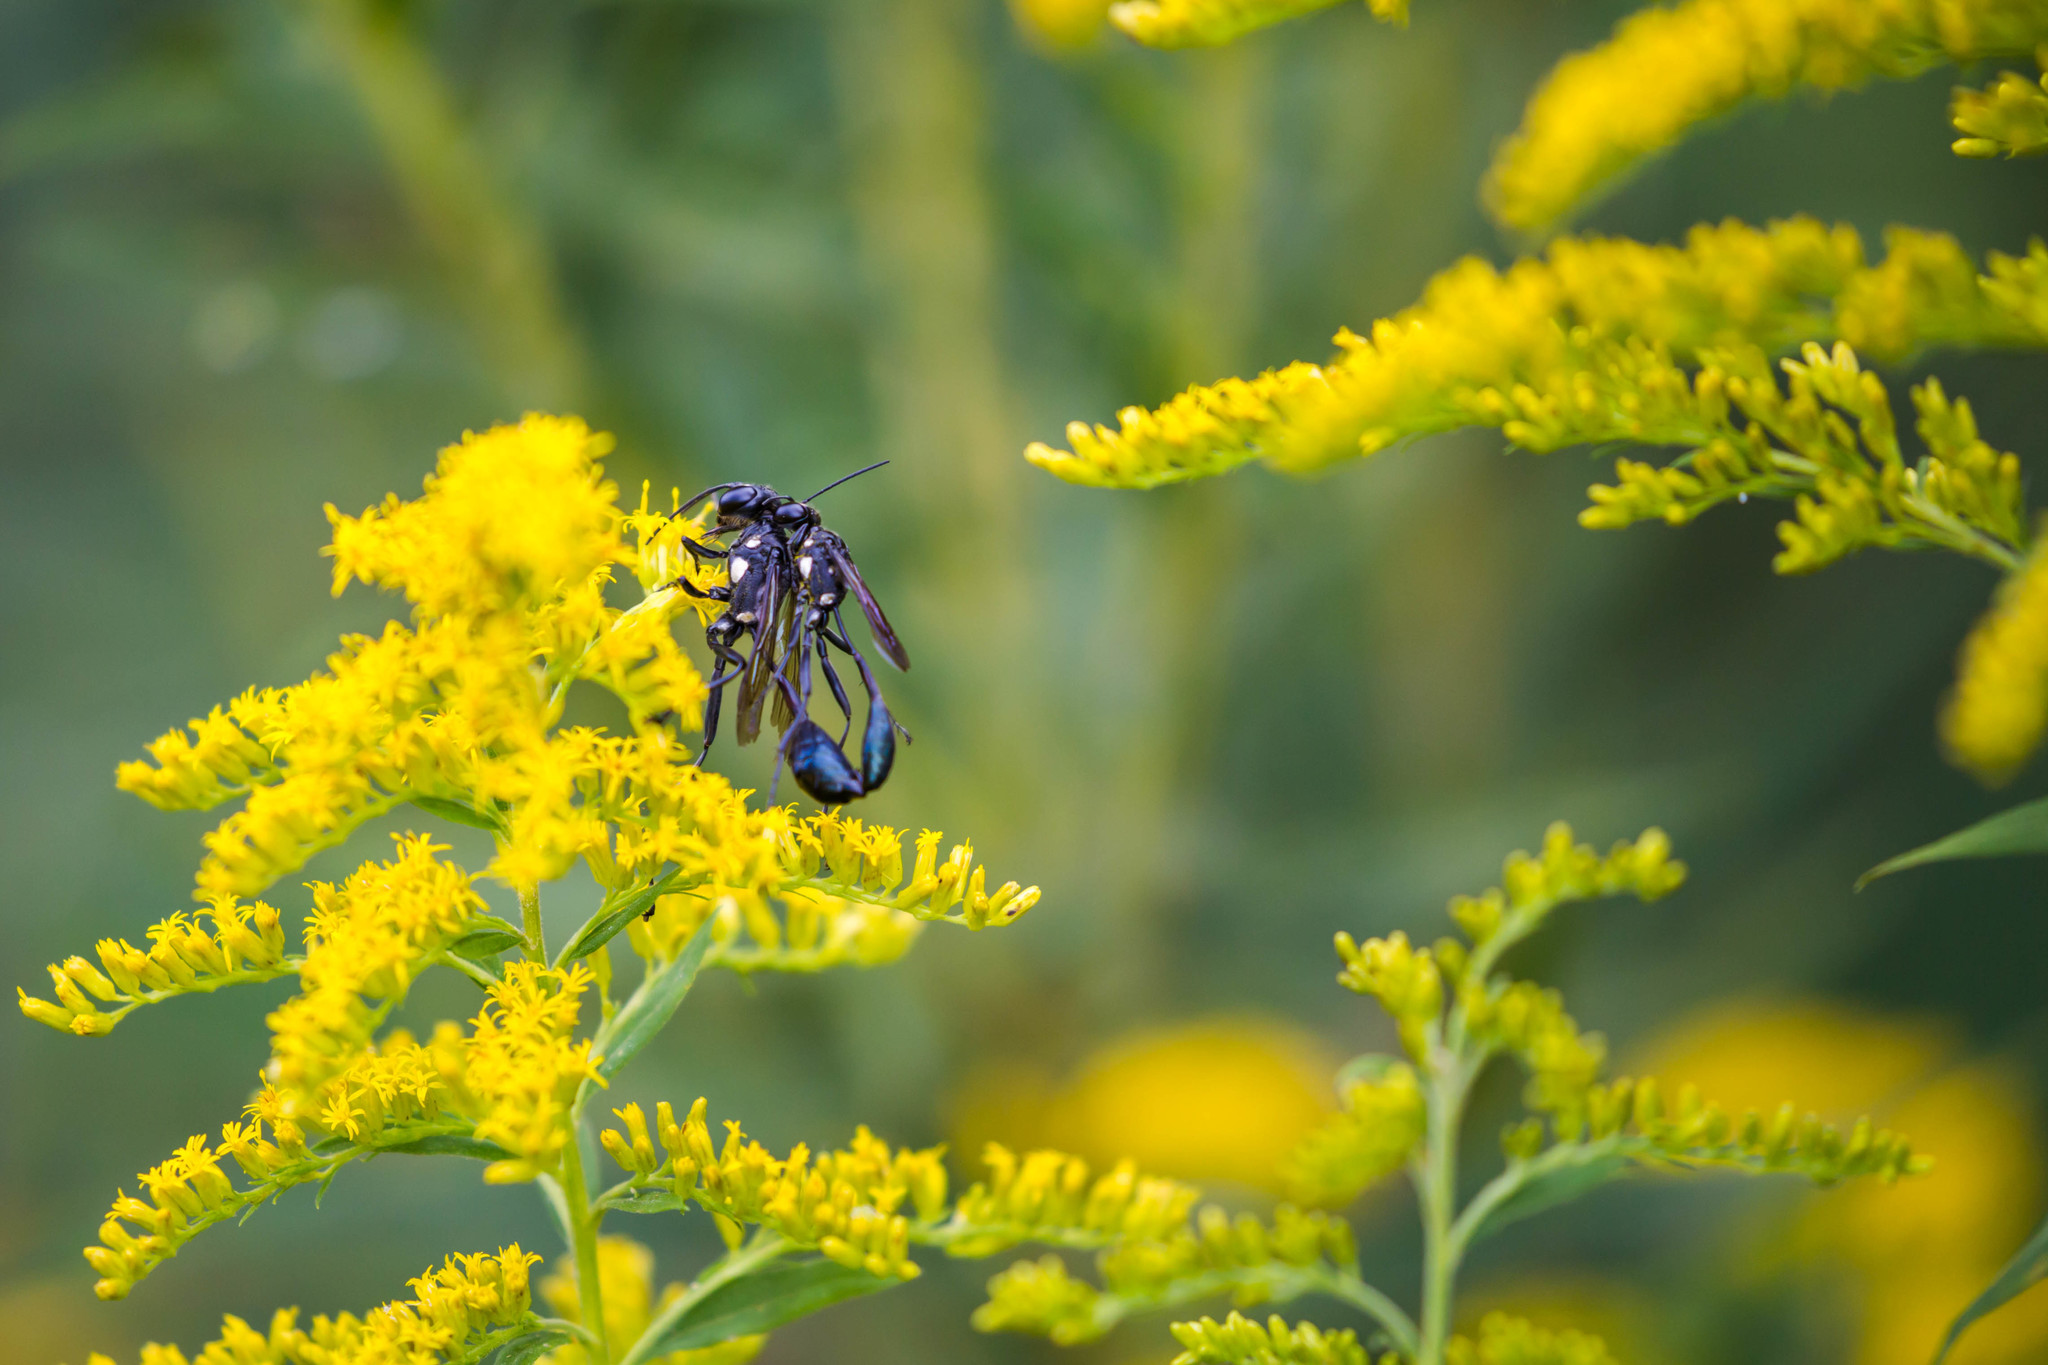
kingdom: Animalia
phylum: Arthropoda
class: Insecta
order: Hymenoptera
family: Sphecidae
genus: Eremnophila
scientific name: Eremnophila aureonotata
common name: Gold-marked thread-waisted wasp
